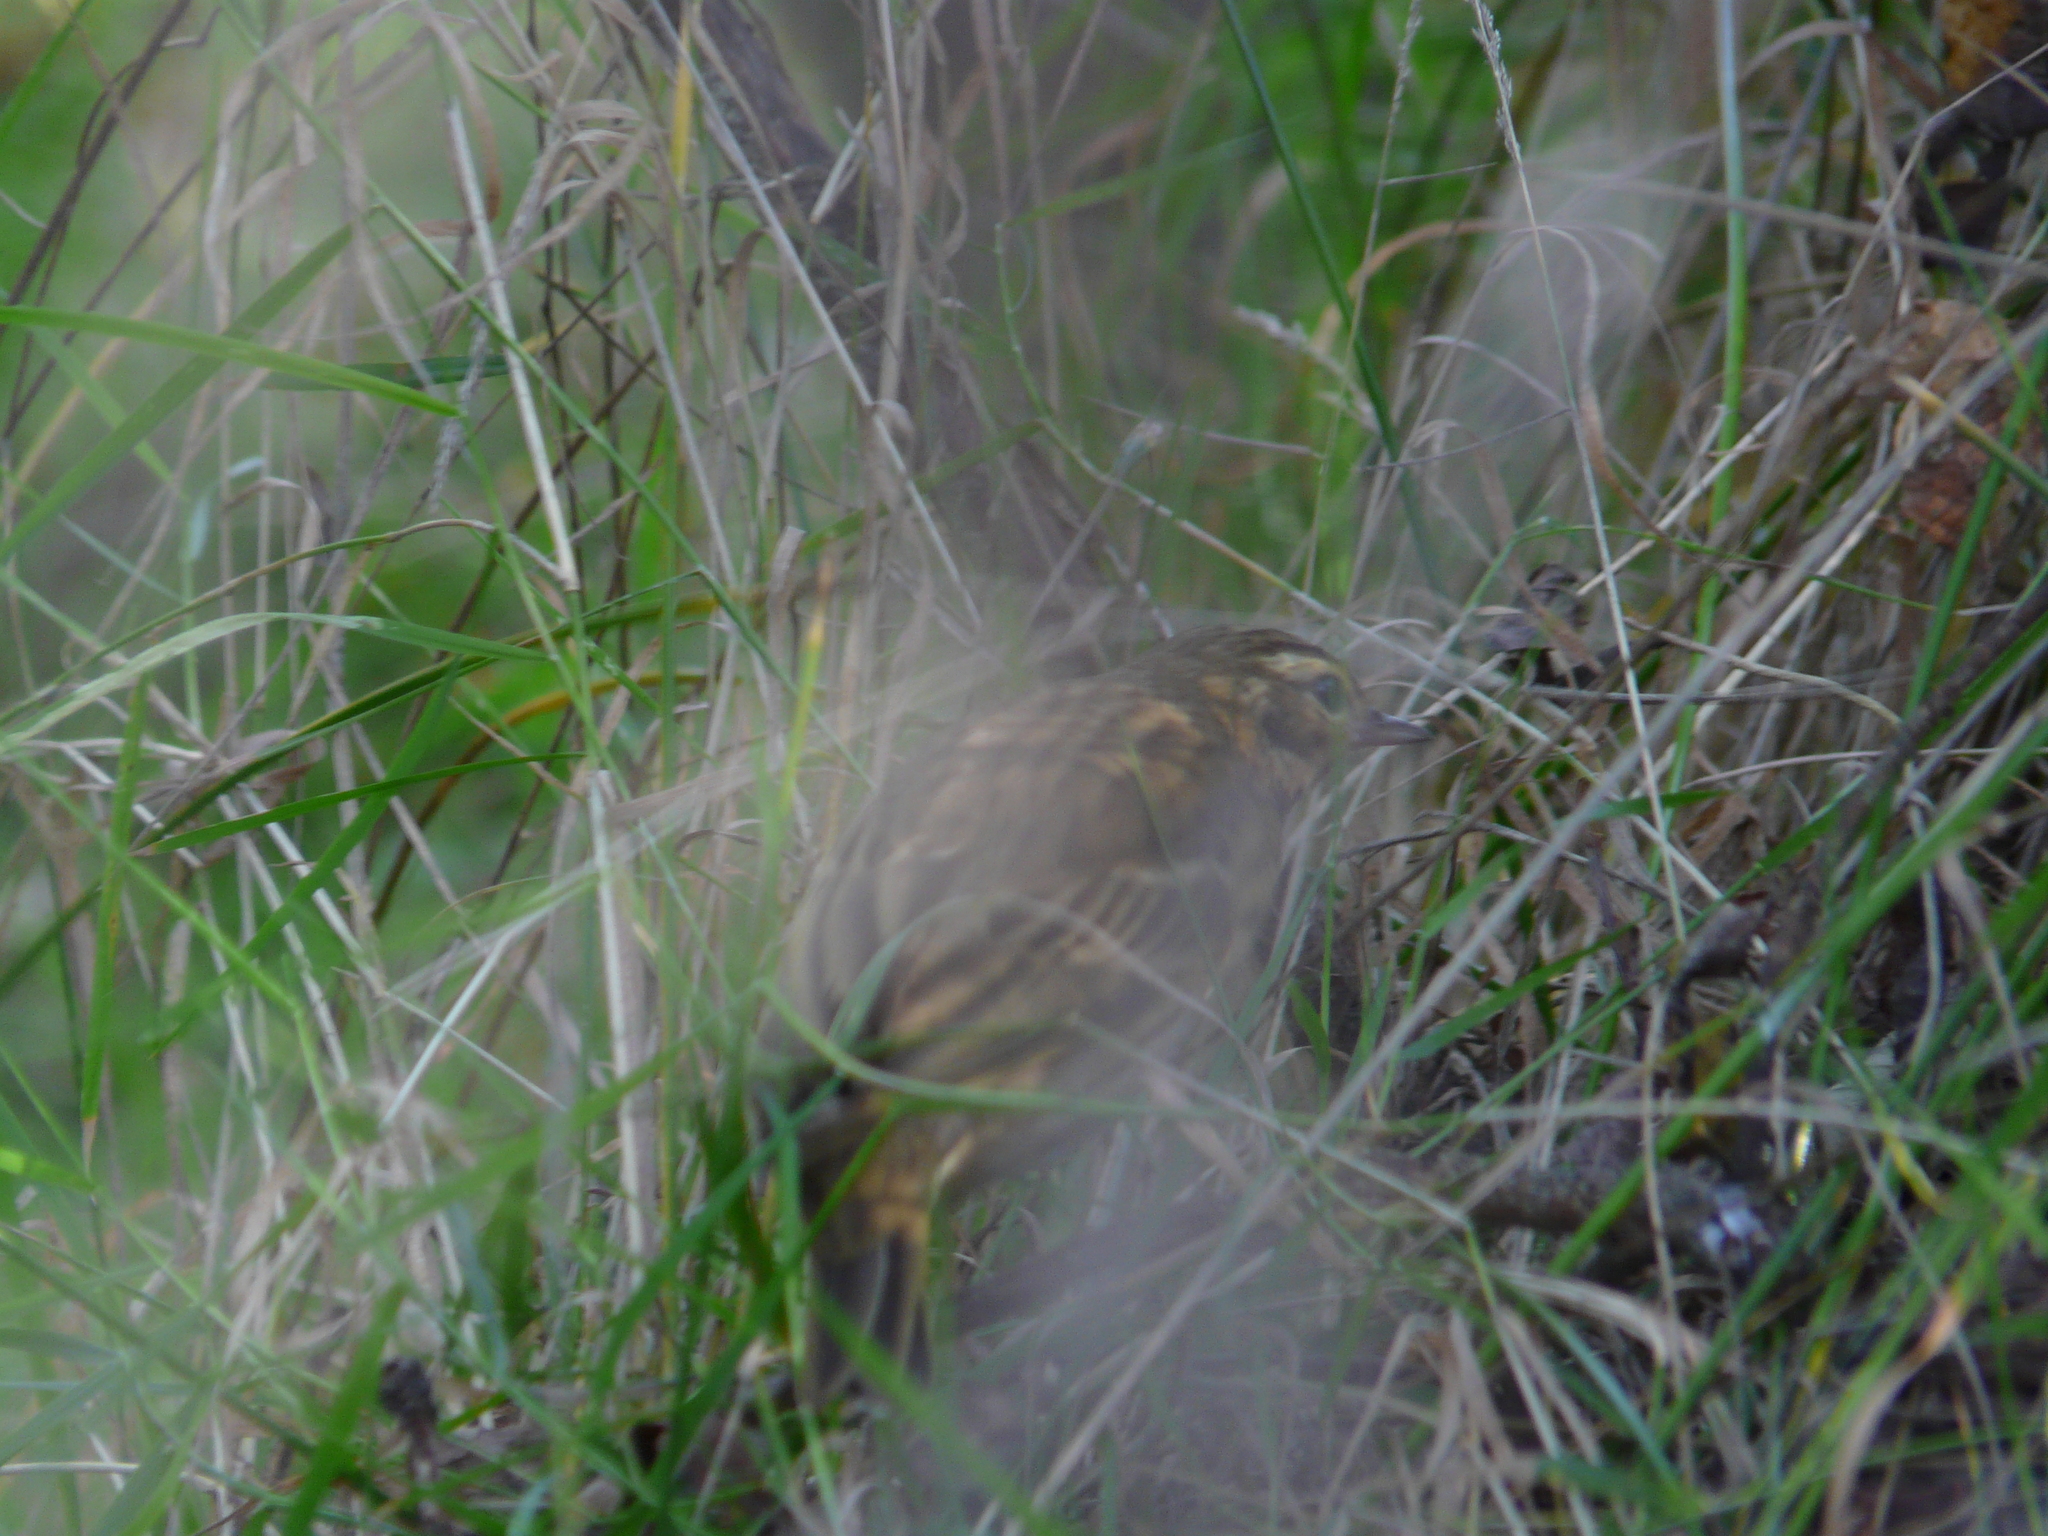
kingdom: Animalia
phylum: Chordata
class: Aves
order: Passeriformes
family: Motacillidae
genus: Anthus
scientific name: Anthus hodgsoni
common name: Olive-backed pipit
